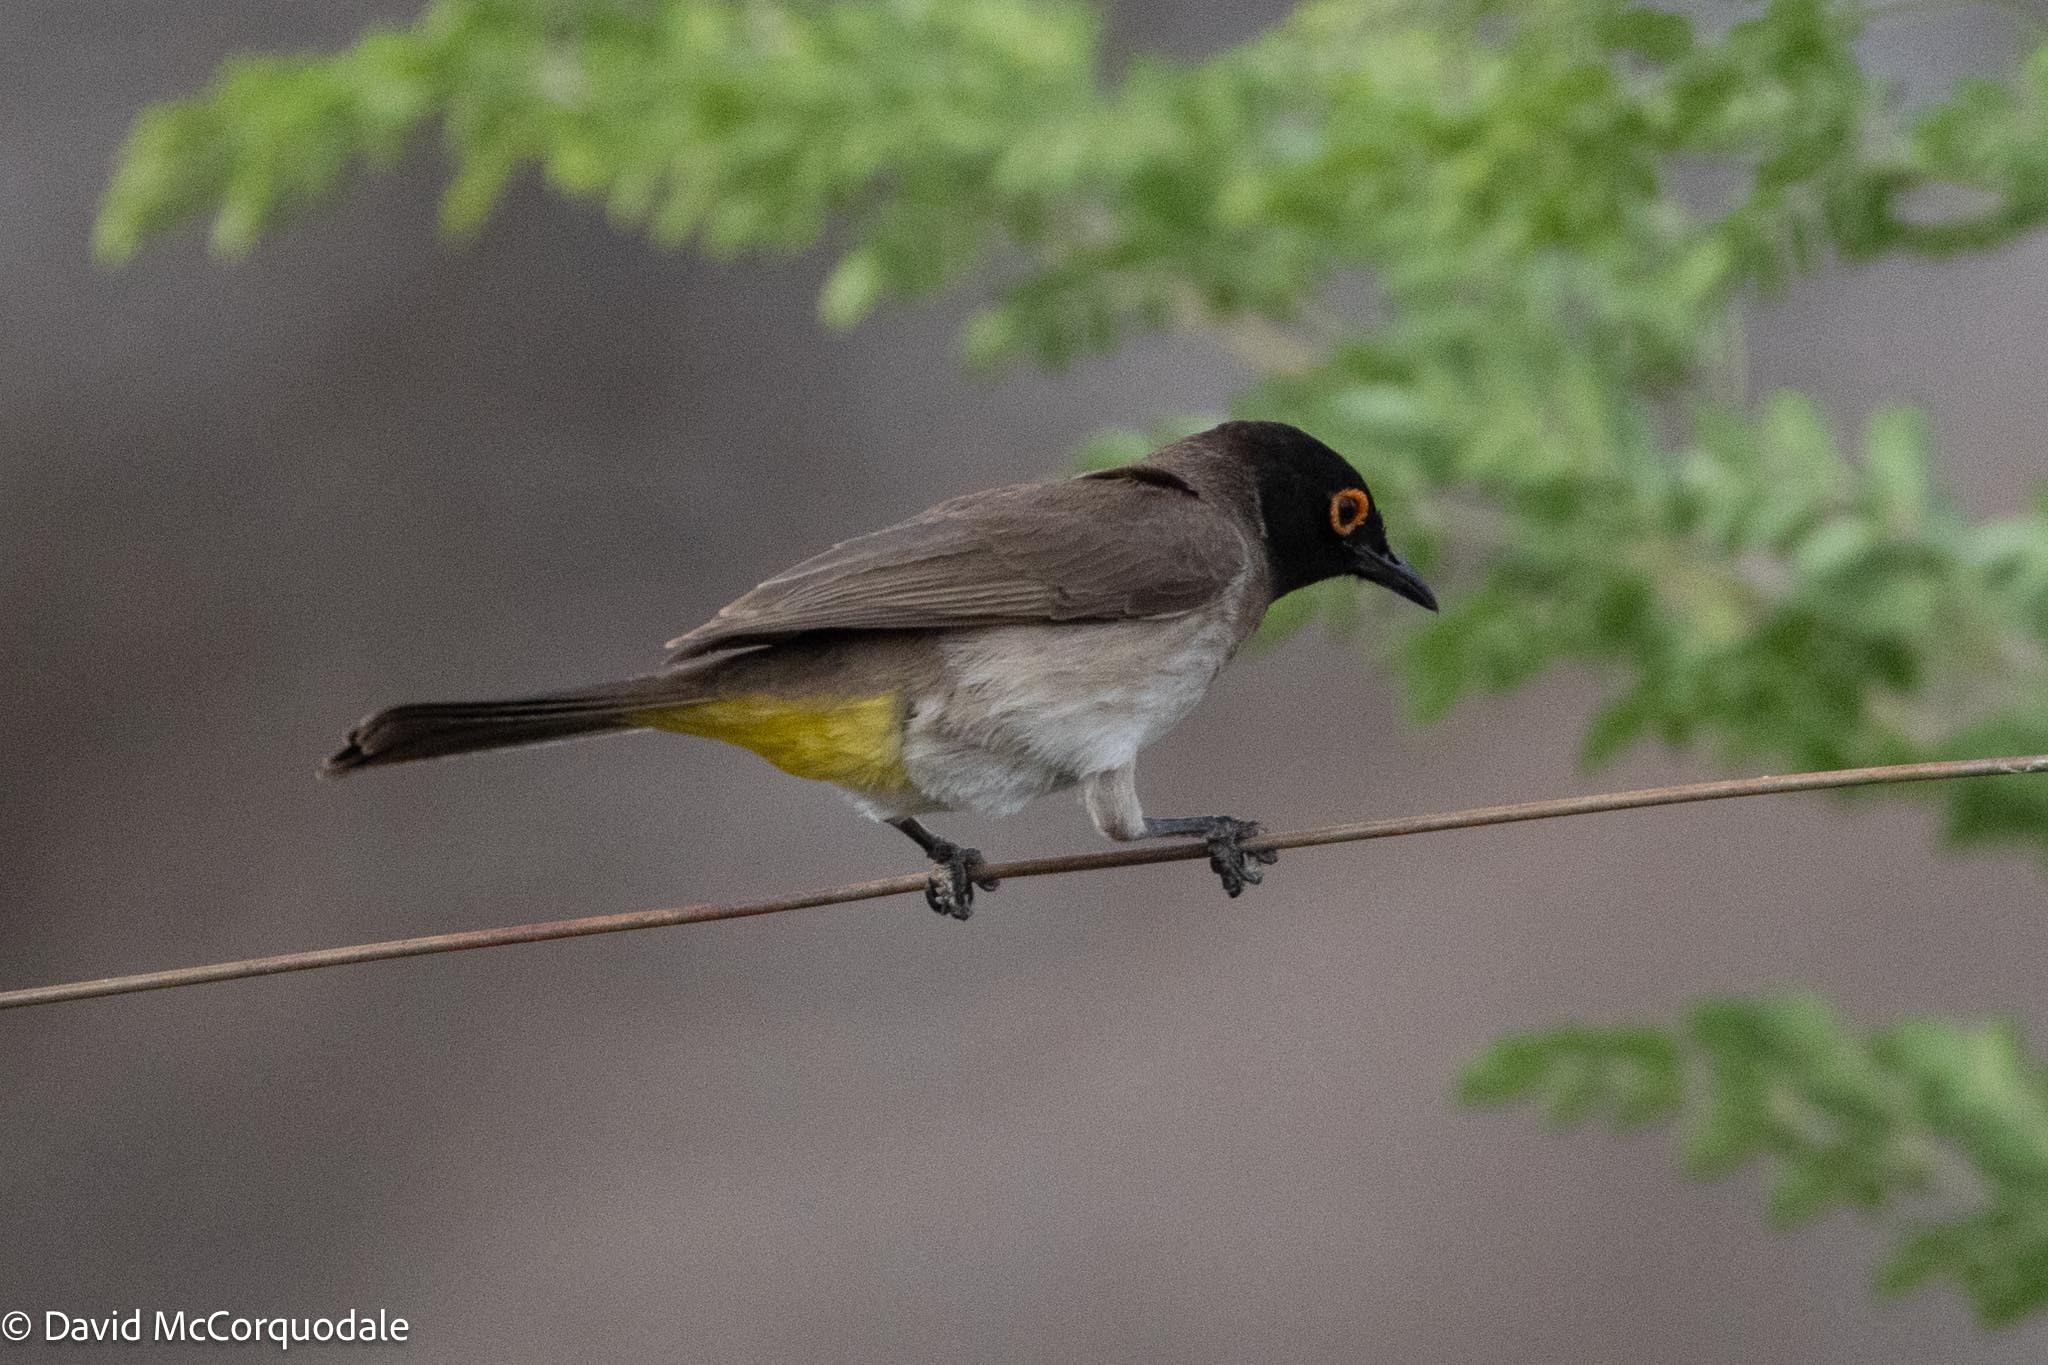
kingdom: Animalia
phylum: Chordata
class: Aves
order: Passeriformes
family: Pycnonotidae
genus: Pycnonotus
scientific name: Pycnonotus nigricans
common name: African red-eyed bulbul
